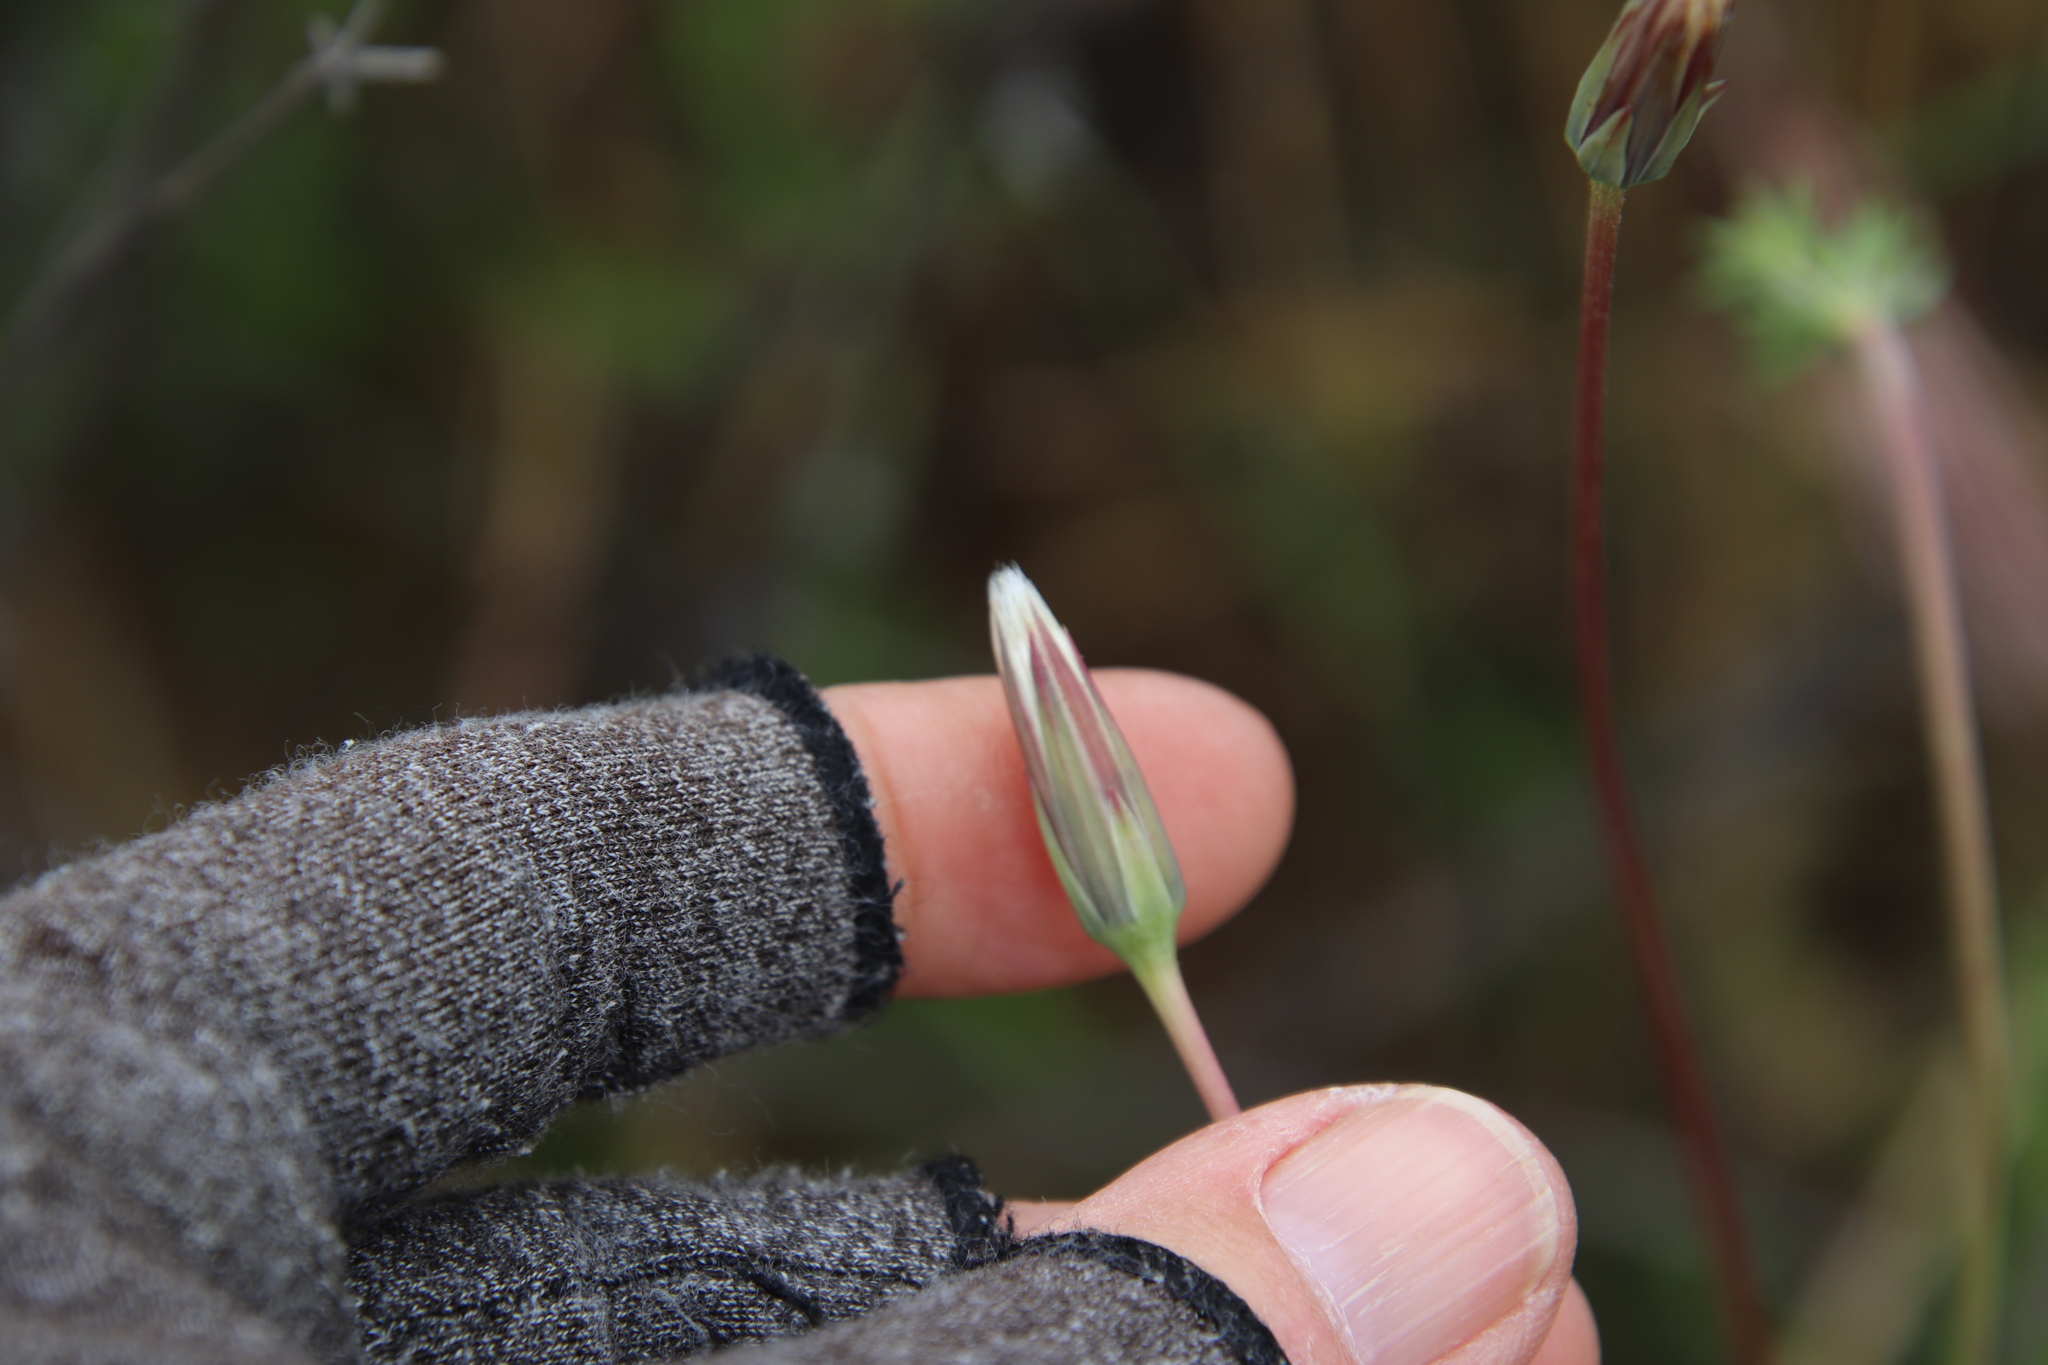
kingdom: Plantae
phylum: Tracheophyta
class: Magnoliopsida
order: Asterales
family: Asteraceae
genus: Microseris
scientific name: Microseris lindleyi
